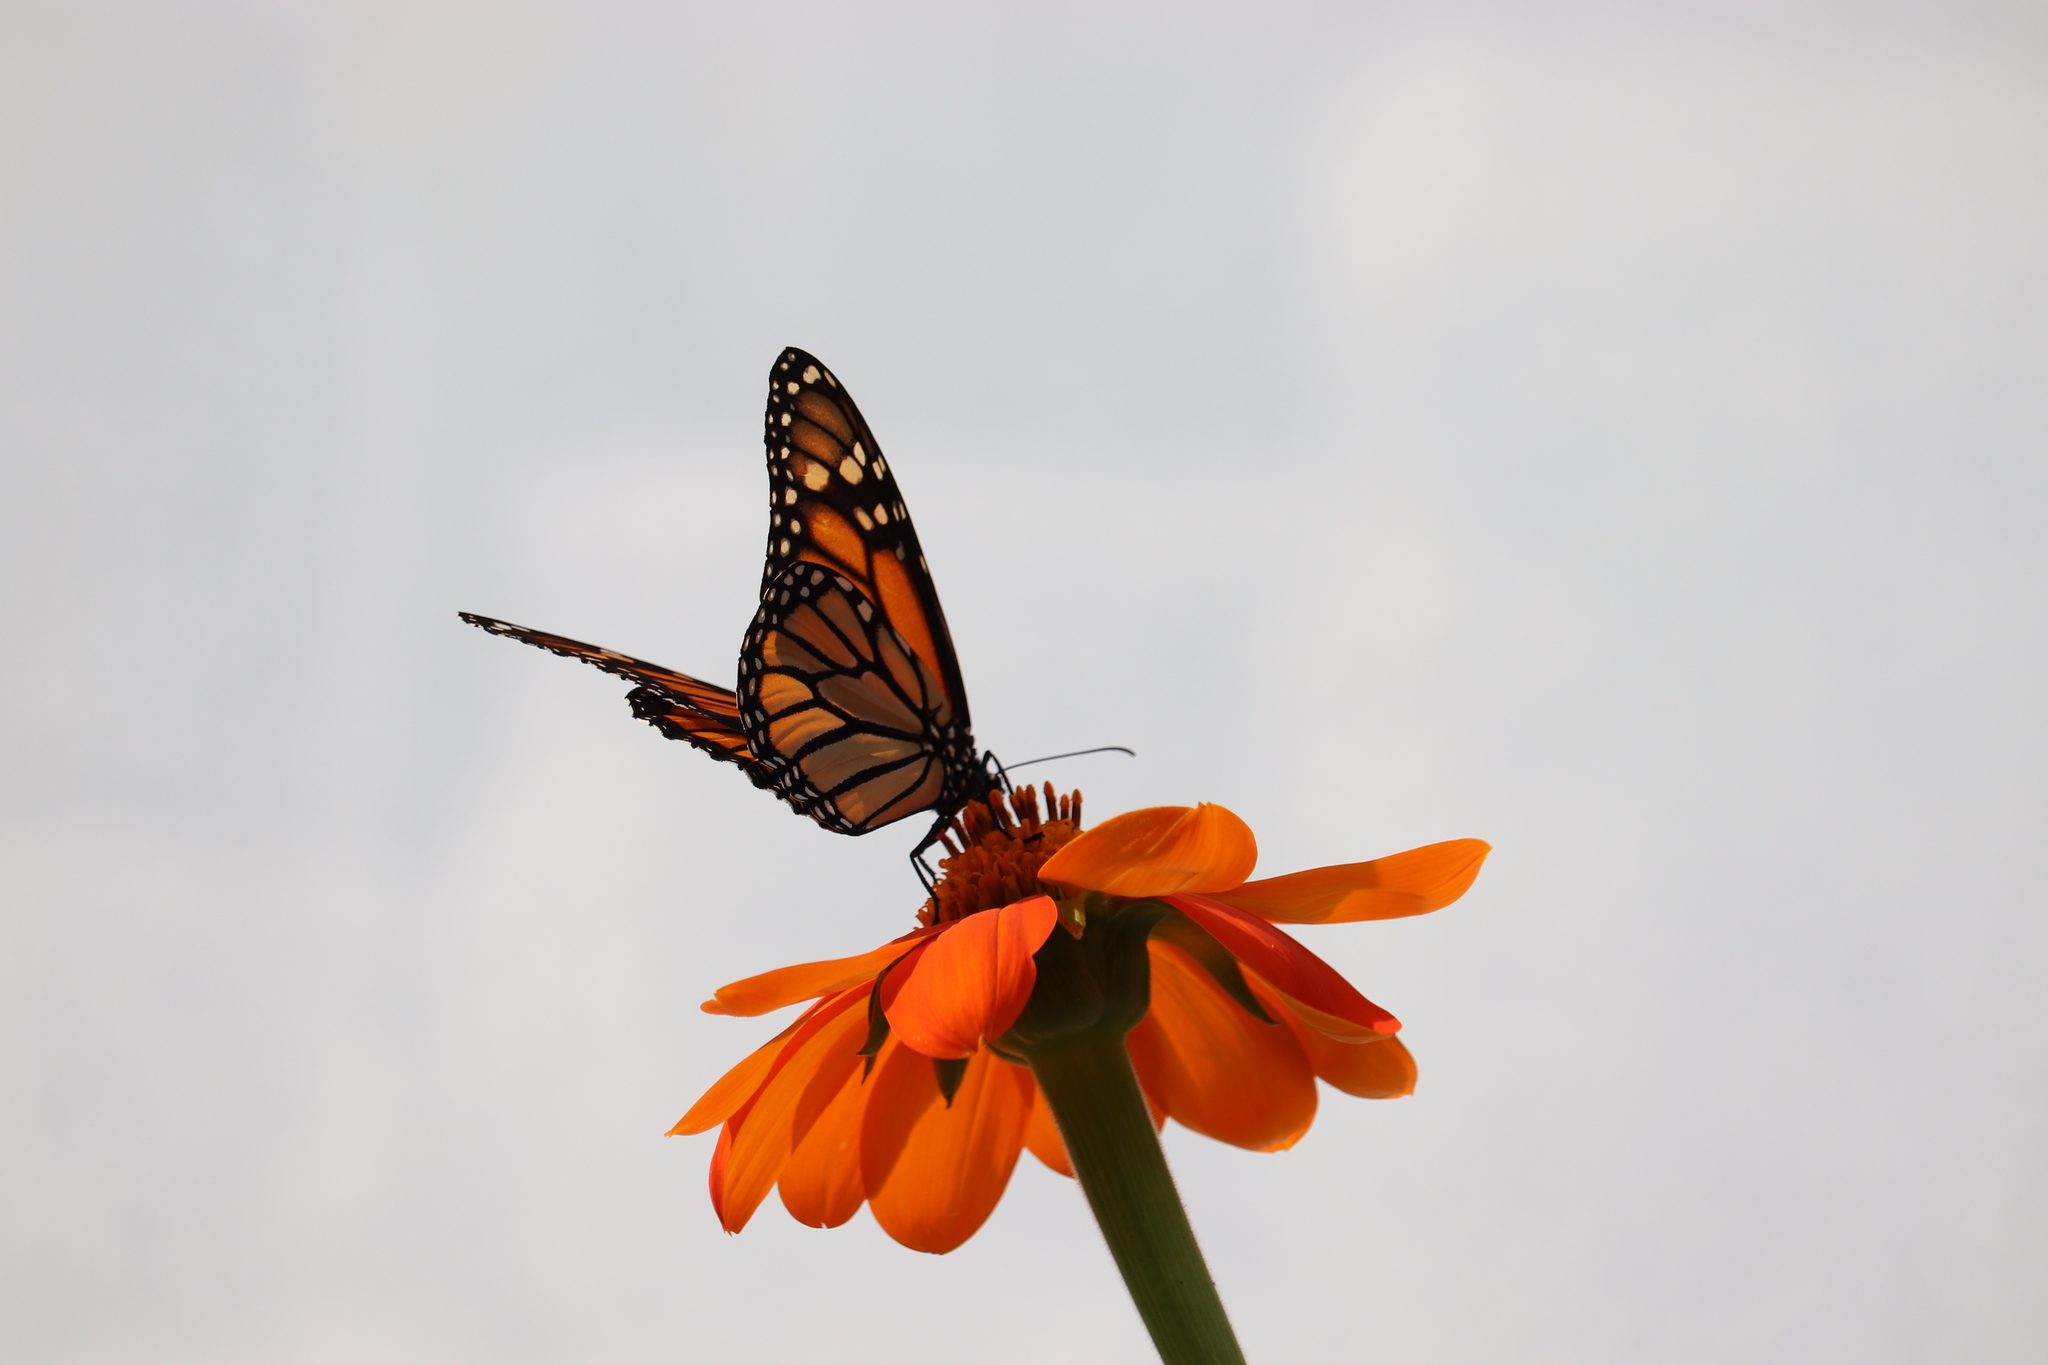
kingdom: Animalia
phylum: Arthropoda
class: Insecta
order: Lepidoptera
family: Nymphalidae
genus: Danaus
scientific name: Danaus plexippus
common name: Monarch
